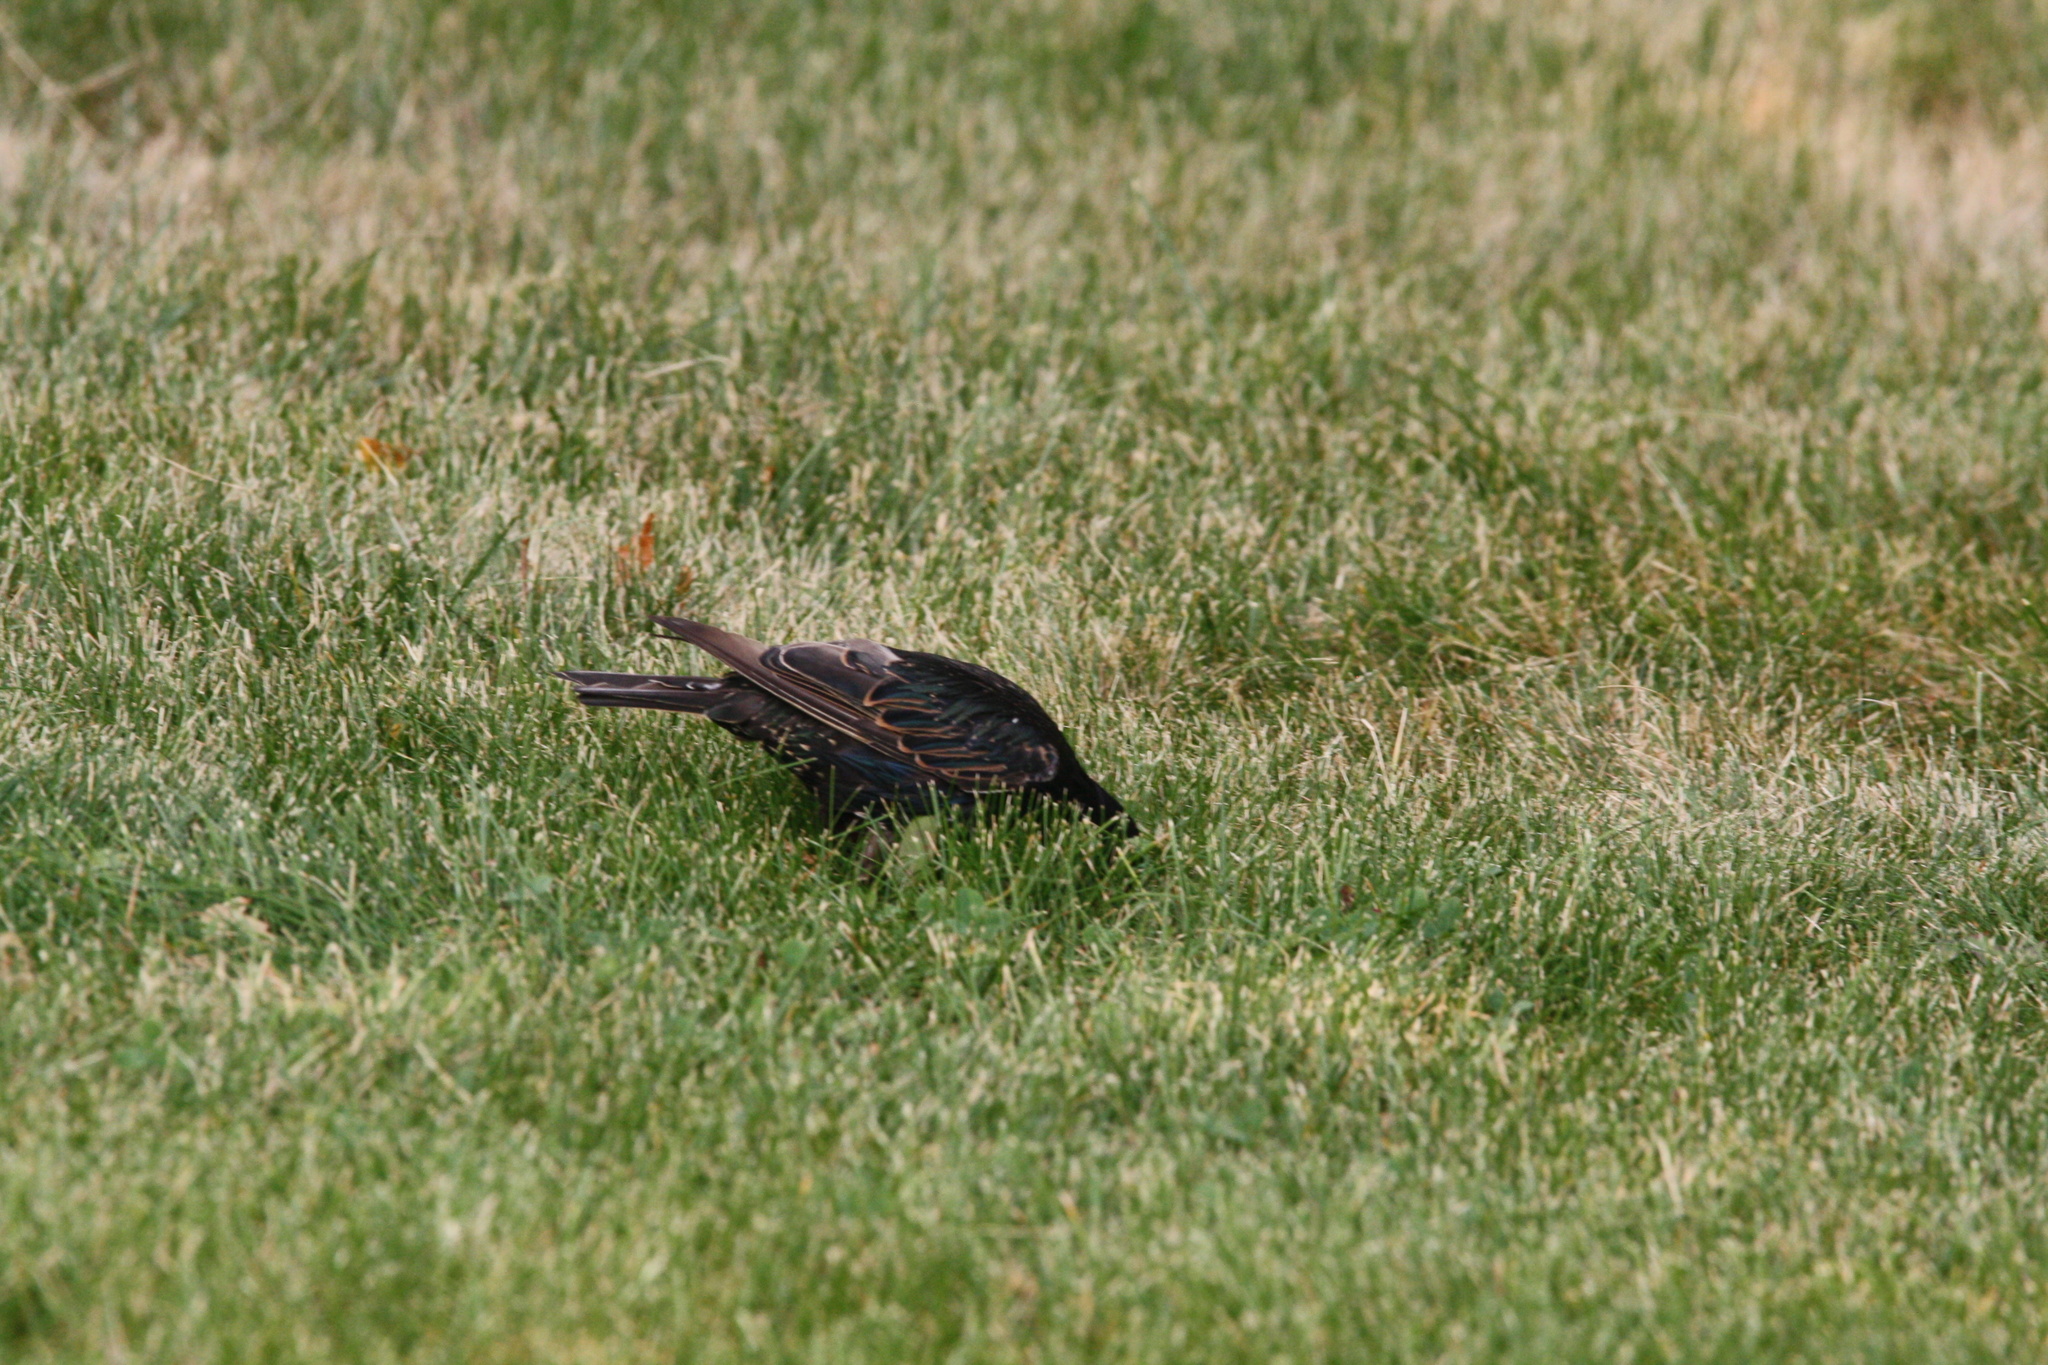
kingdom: Animalia
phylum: Chordata
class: Aves
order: Passeriformes
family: Sturnidae
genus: Sturnus
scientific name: Sturnus vulgaris
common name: Common starling
